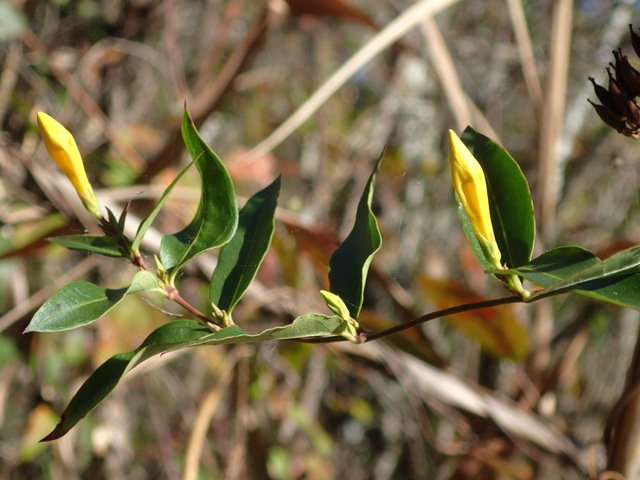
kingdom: Plantae
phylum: Tracheophyta
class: Magnoliopsida
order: Gentianales
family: Gelsemiaceae
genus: Gelsemium
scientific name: Gelsemium sempervirens
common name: Carolina-jasmine
